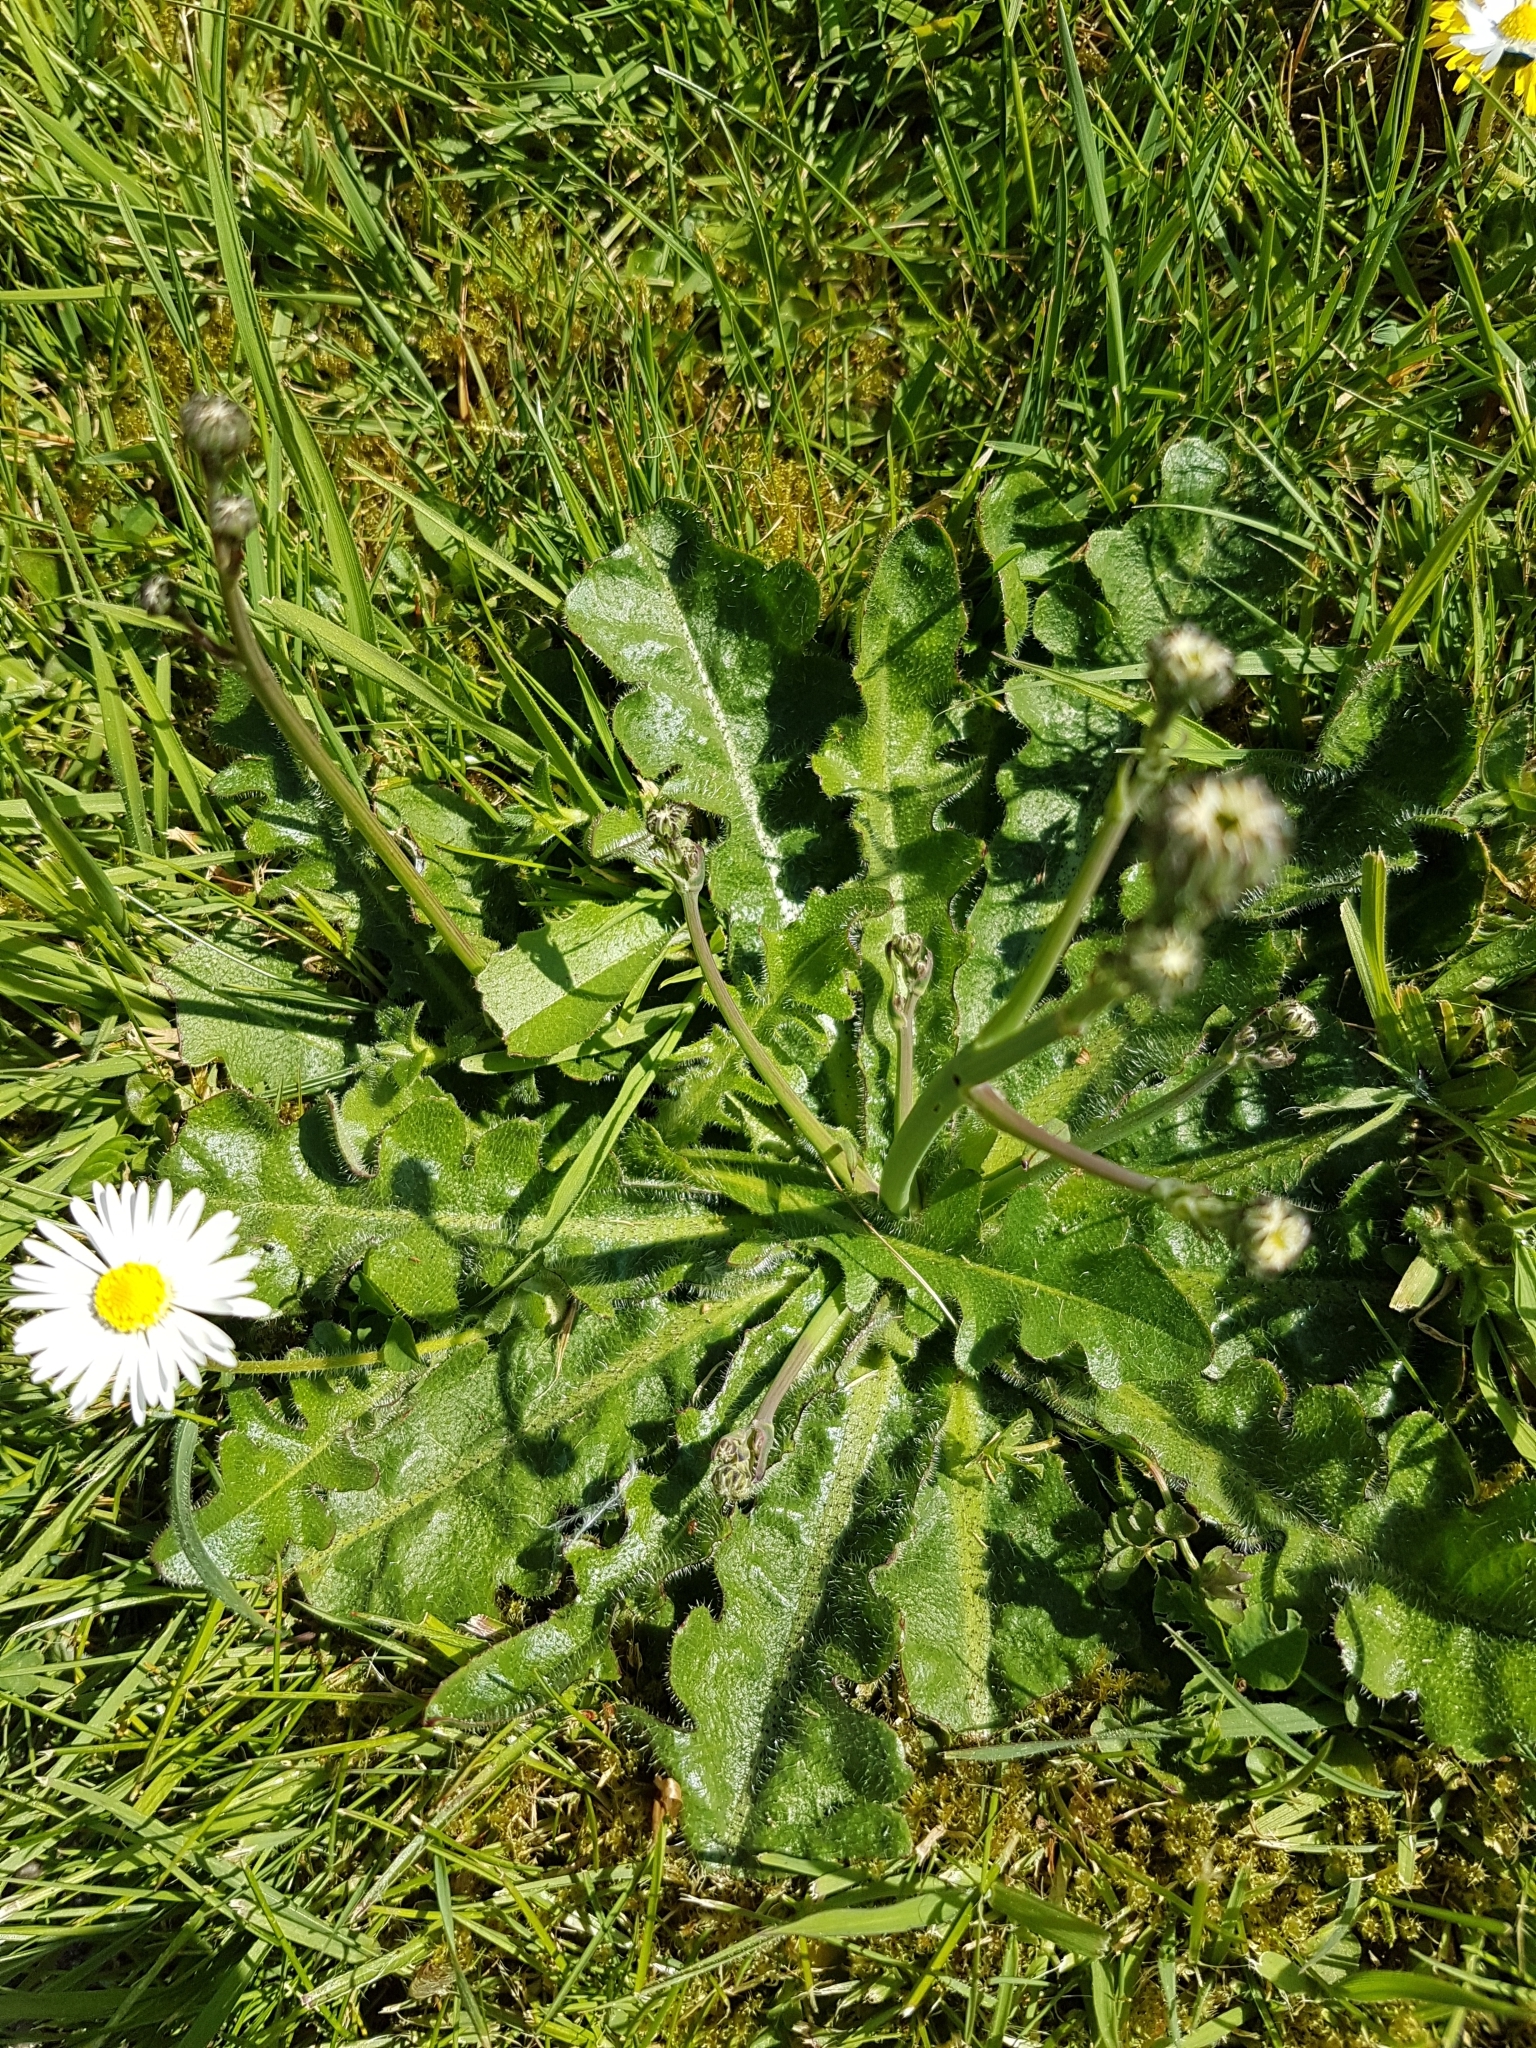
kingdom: Plantae
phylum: Tracheophyta
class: Magnoliopsida
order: Asterales
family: Asteraceae
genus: Hypochaeris
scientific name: Hypochaeris radicata
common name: Flatweed
